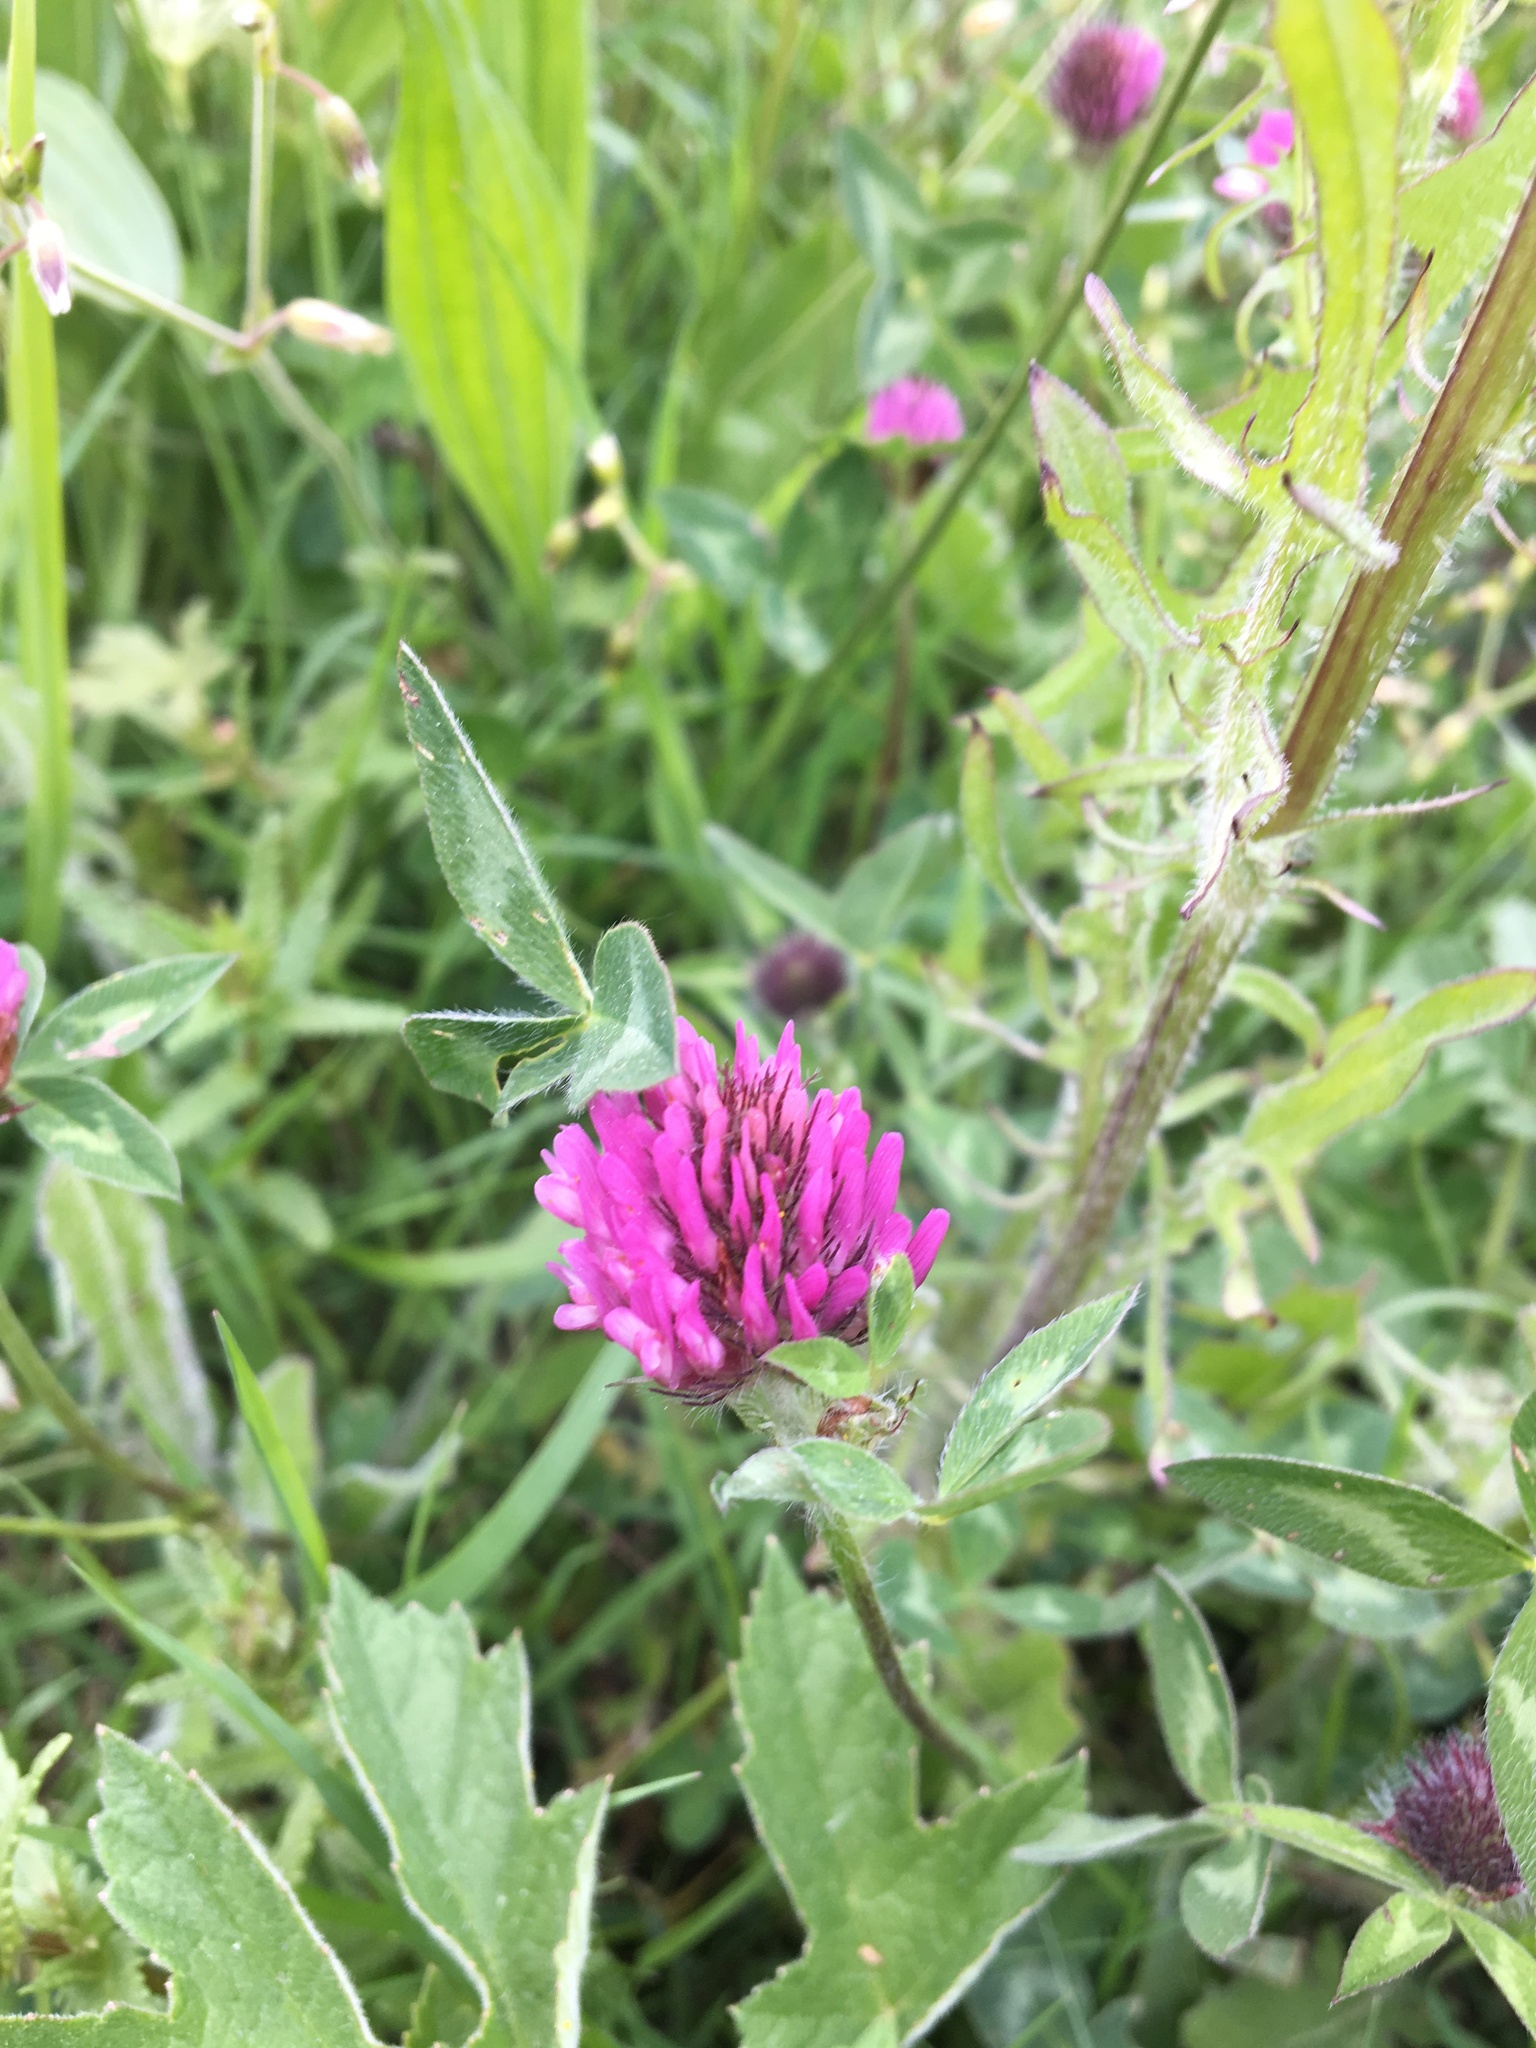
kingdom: Plantae
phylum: Tracheophyta
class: Magnoliopsida
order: Fabales
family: Fabaceae
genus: Trifolium
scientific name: Trifolium pratense
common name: Red clover
